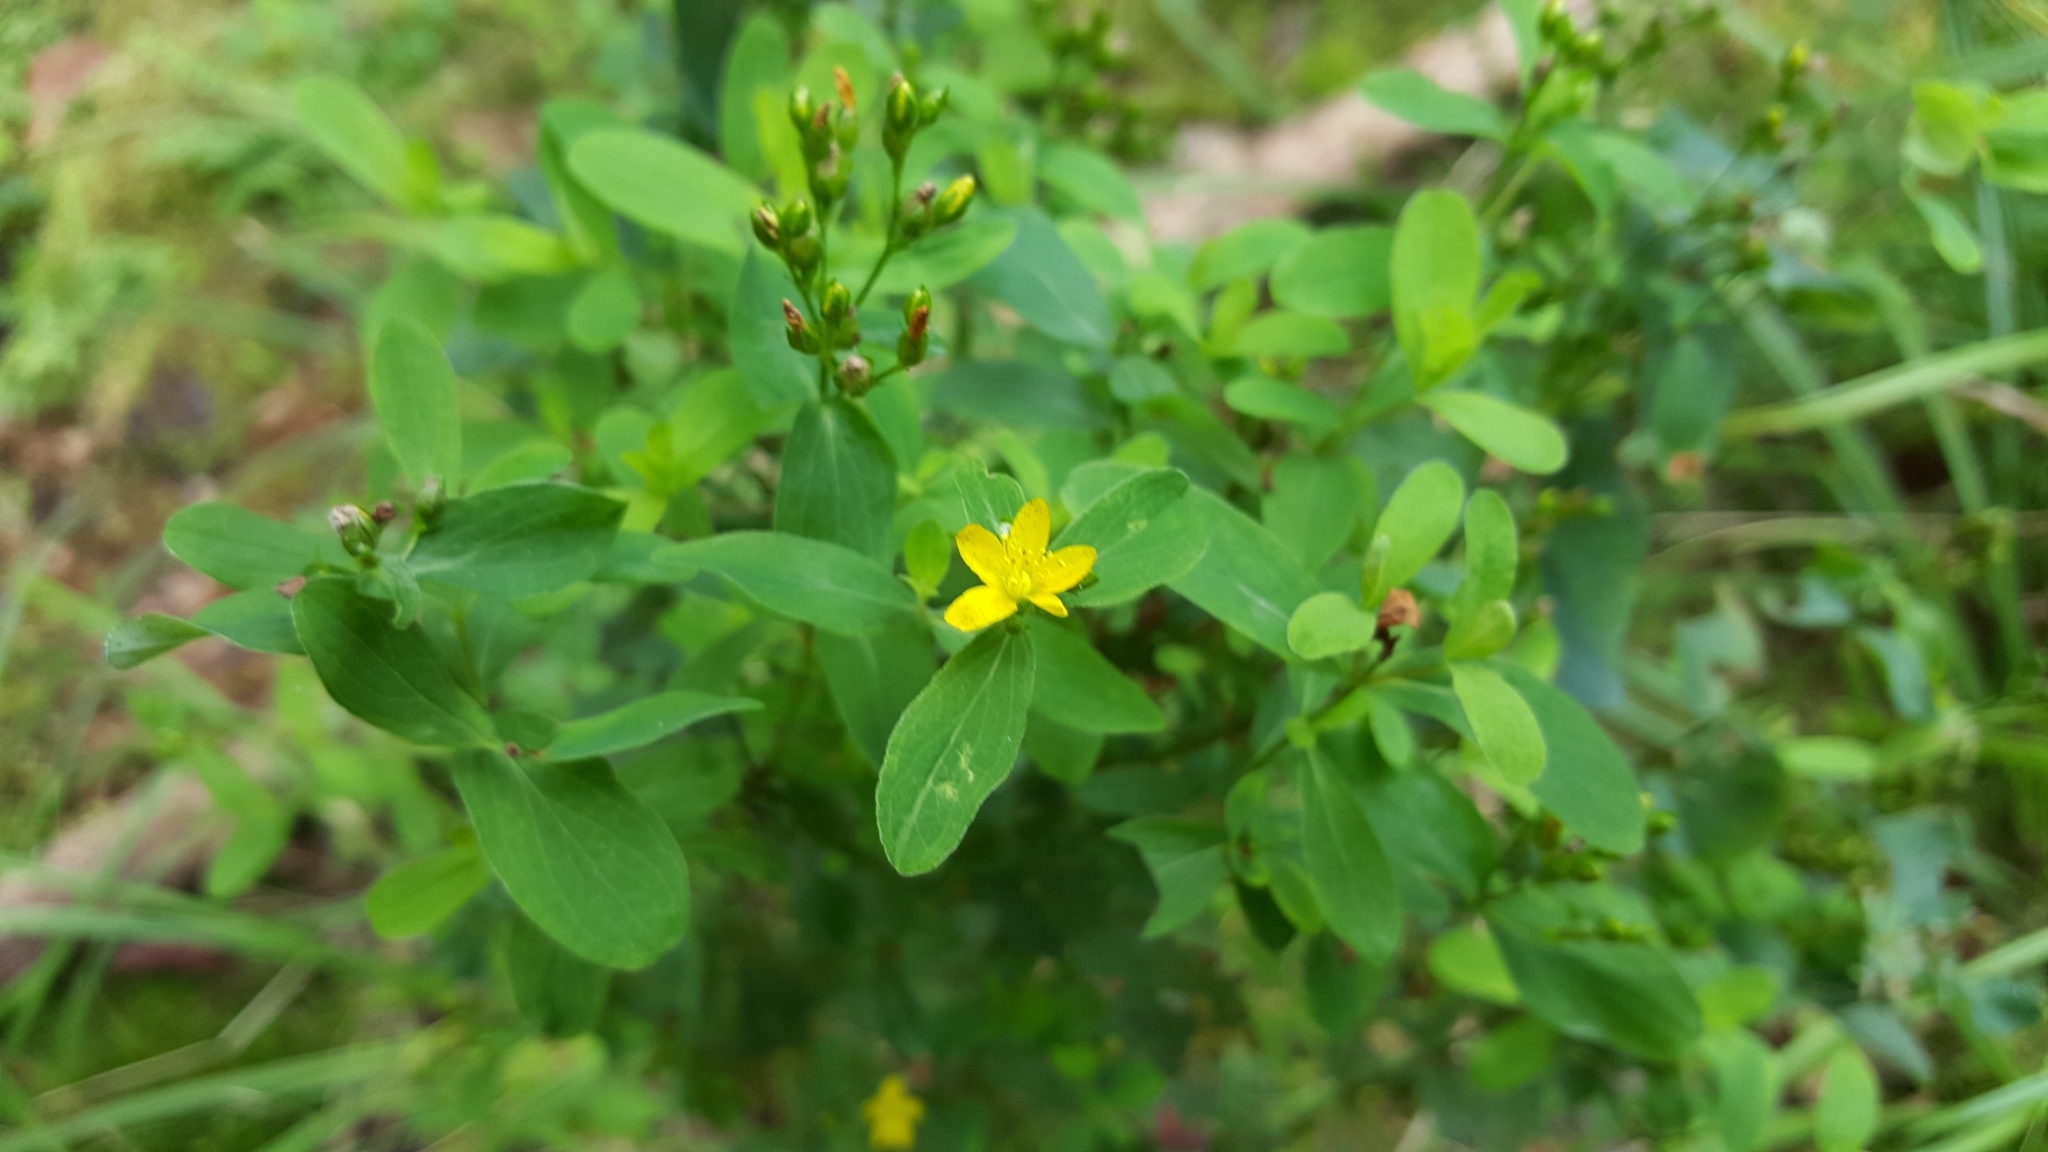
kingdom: Plantae
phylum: Tracheophyta
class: Magnoliopsida
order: Malpighiales
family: Hypericaceae
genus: Hypericum
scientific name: Hypericum punctatum
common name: Spotted st. john's-wort
